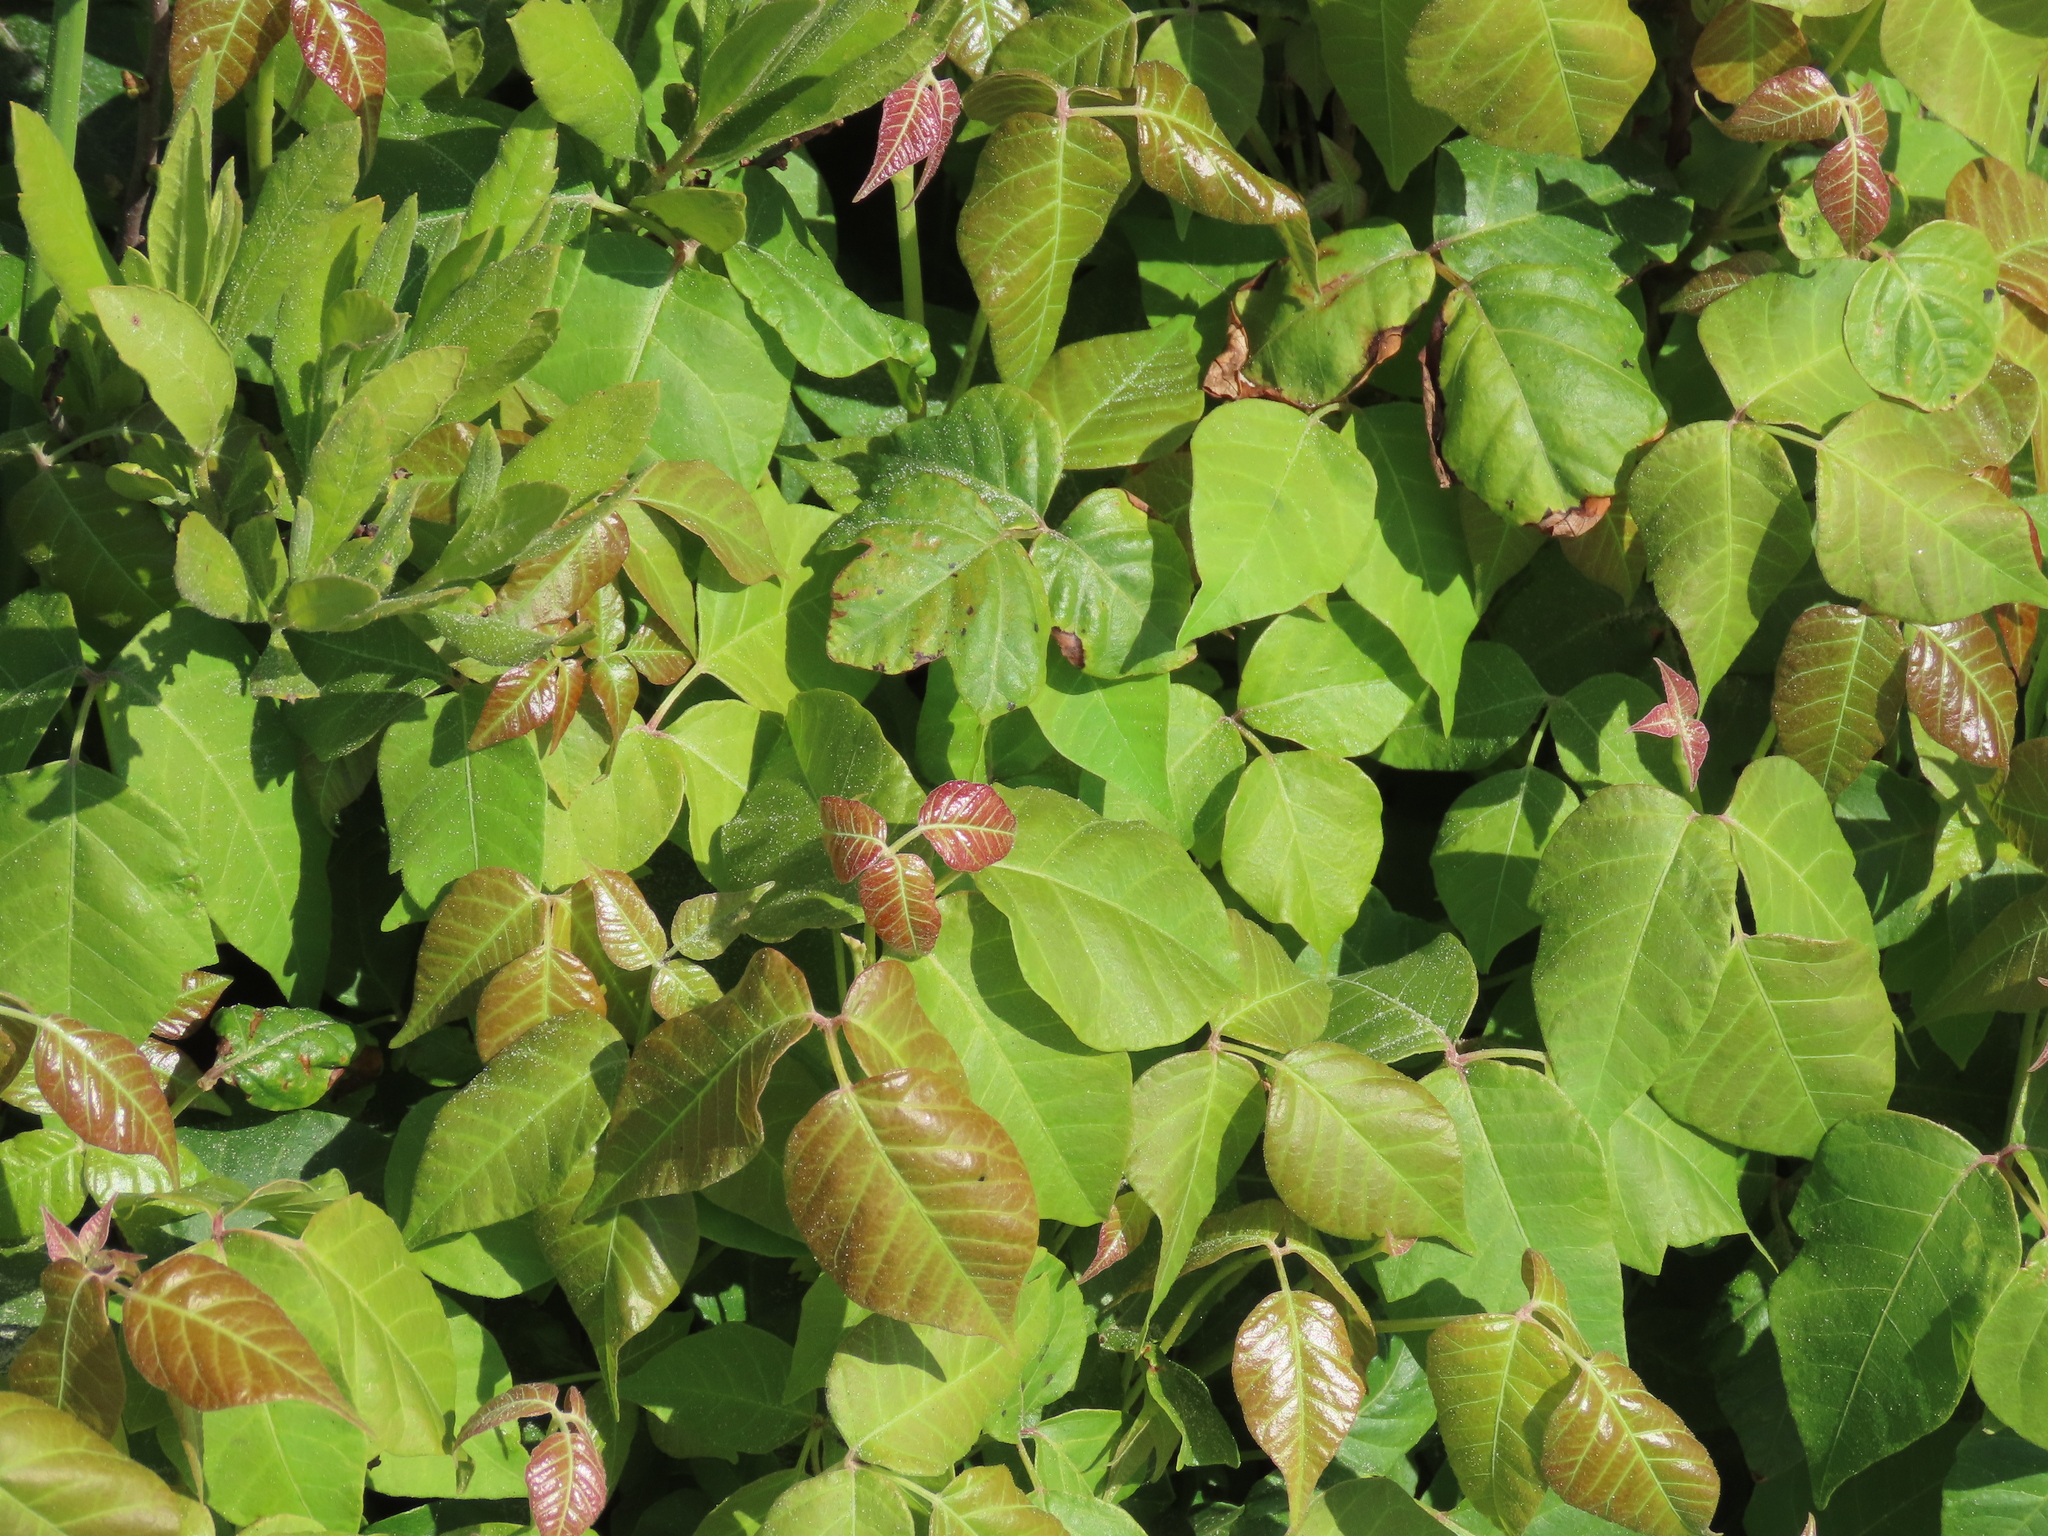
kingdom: Plantae
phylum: Tracheophyta
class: Magnoliopsida
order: Sapindales
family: Anacardiaceae
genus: Toxicodendron
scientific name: Toxicodendron radicans
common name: Poison ivy
